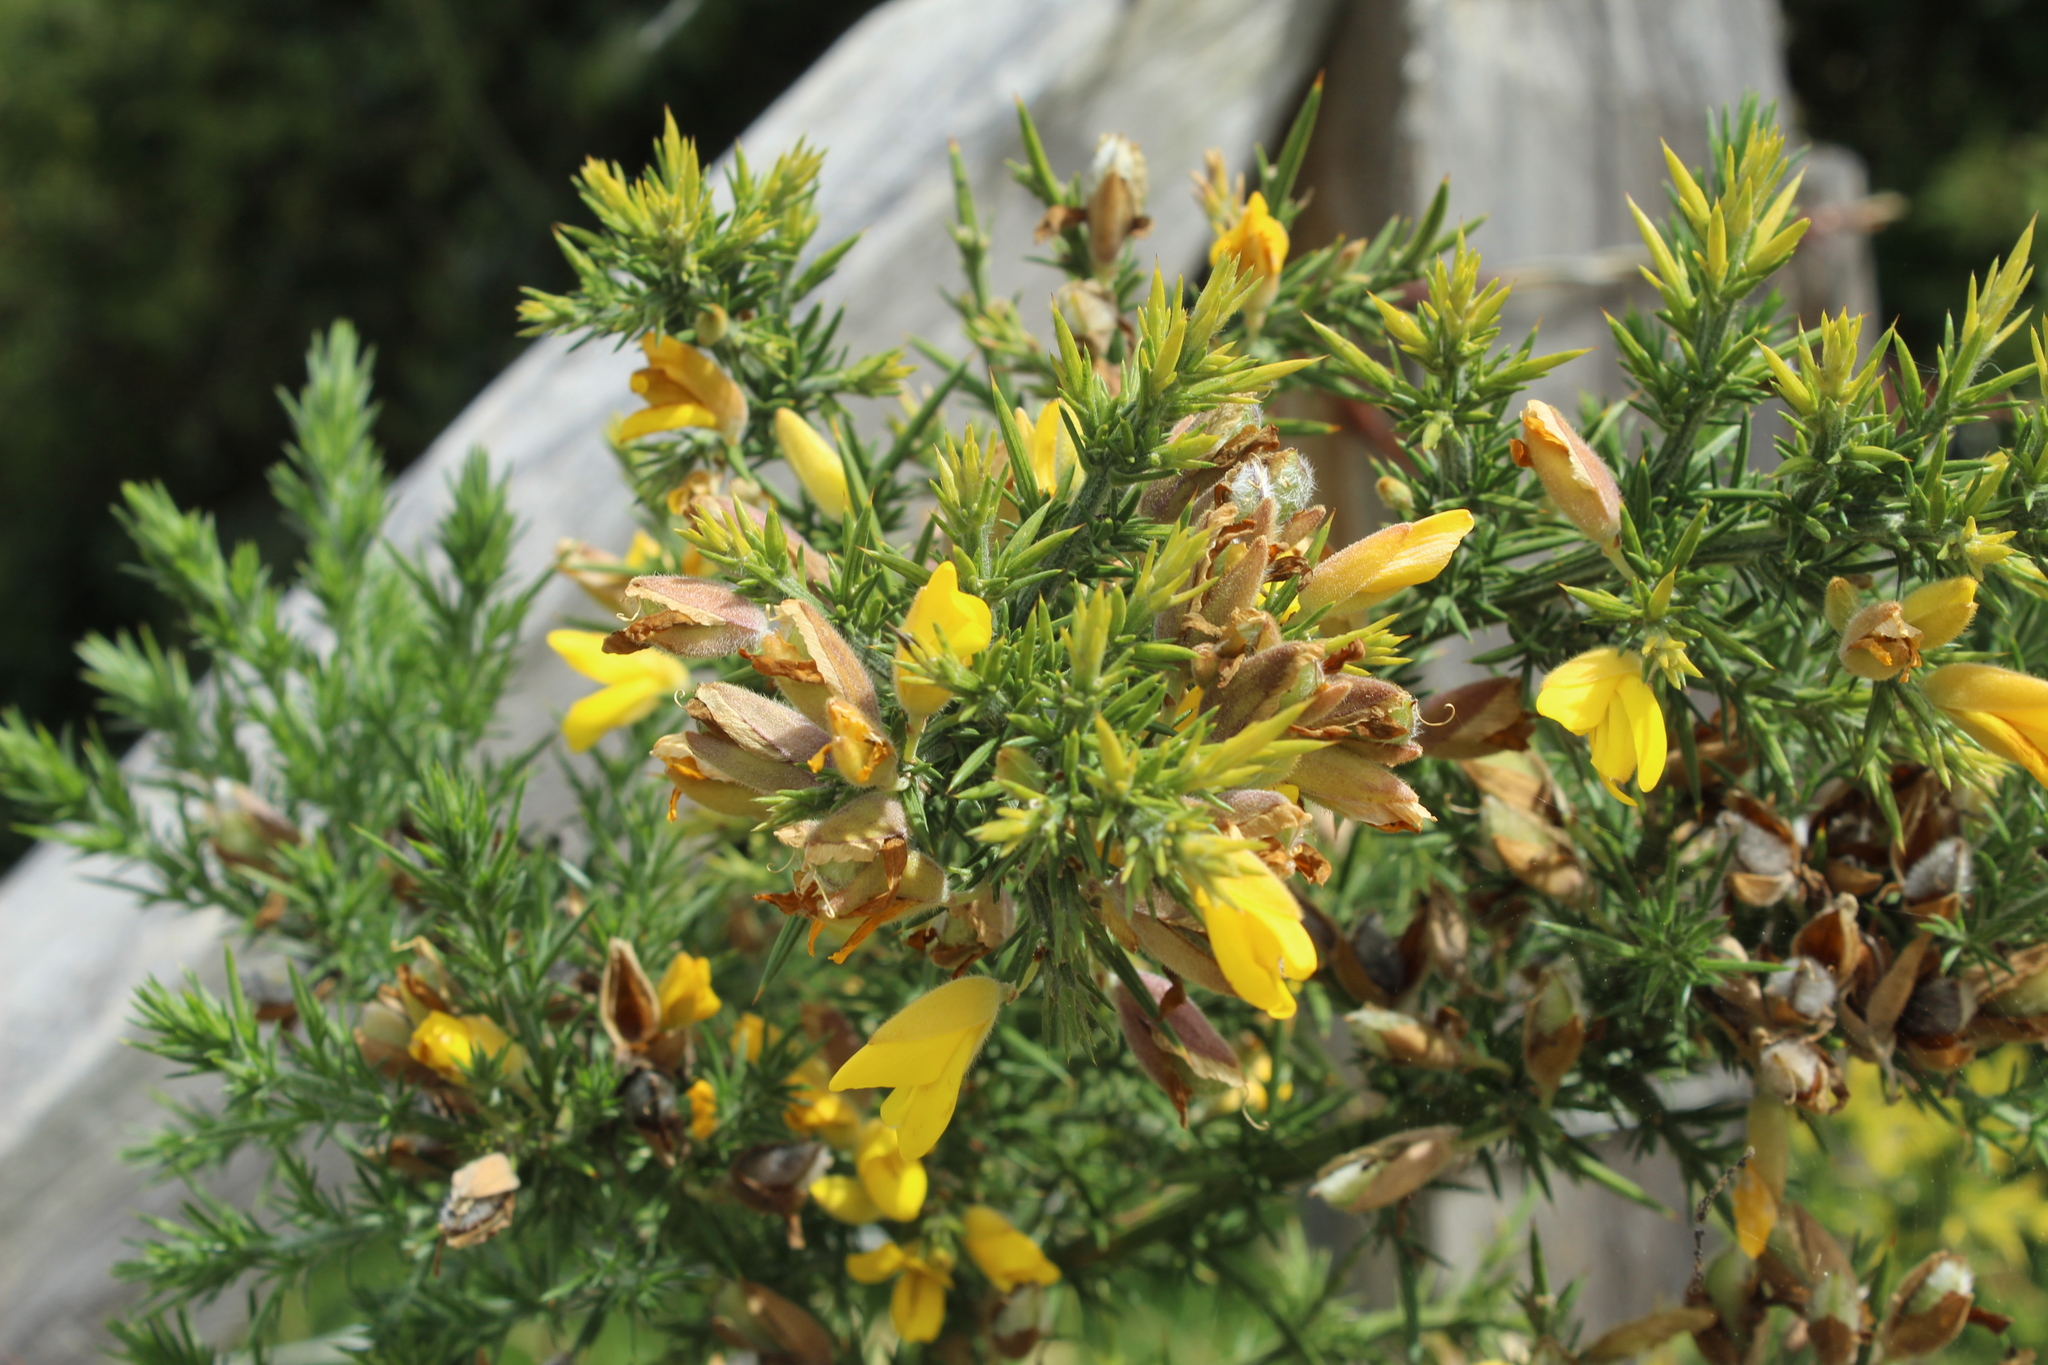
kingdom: Plantae
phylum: Tracheophyta
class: Magnoliopsida
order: Fabales
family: Fabaceae
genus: Ulex
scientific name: Ulex europaeus
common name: Common gorse
